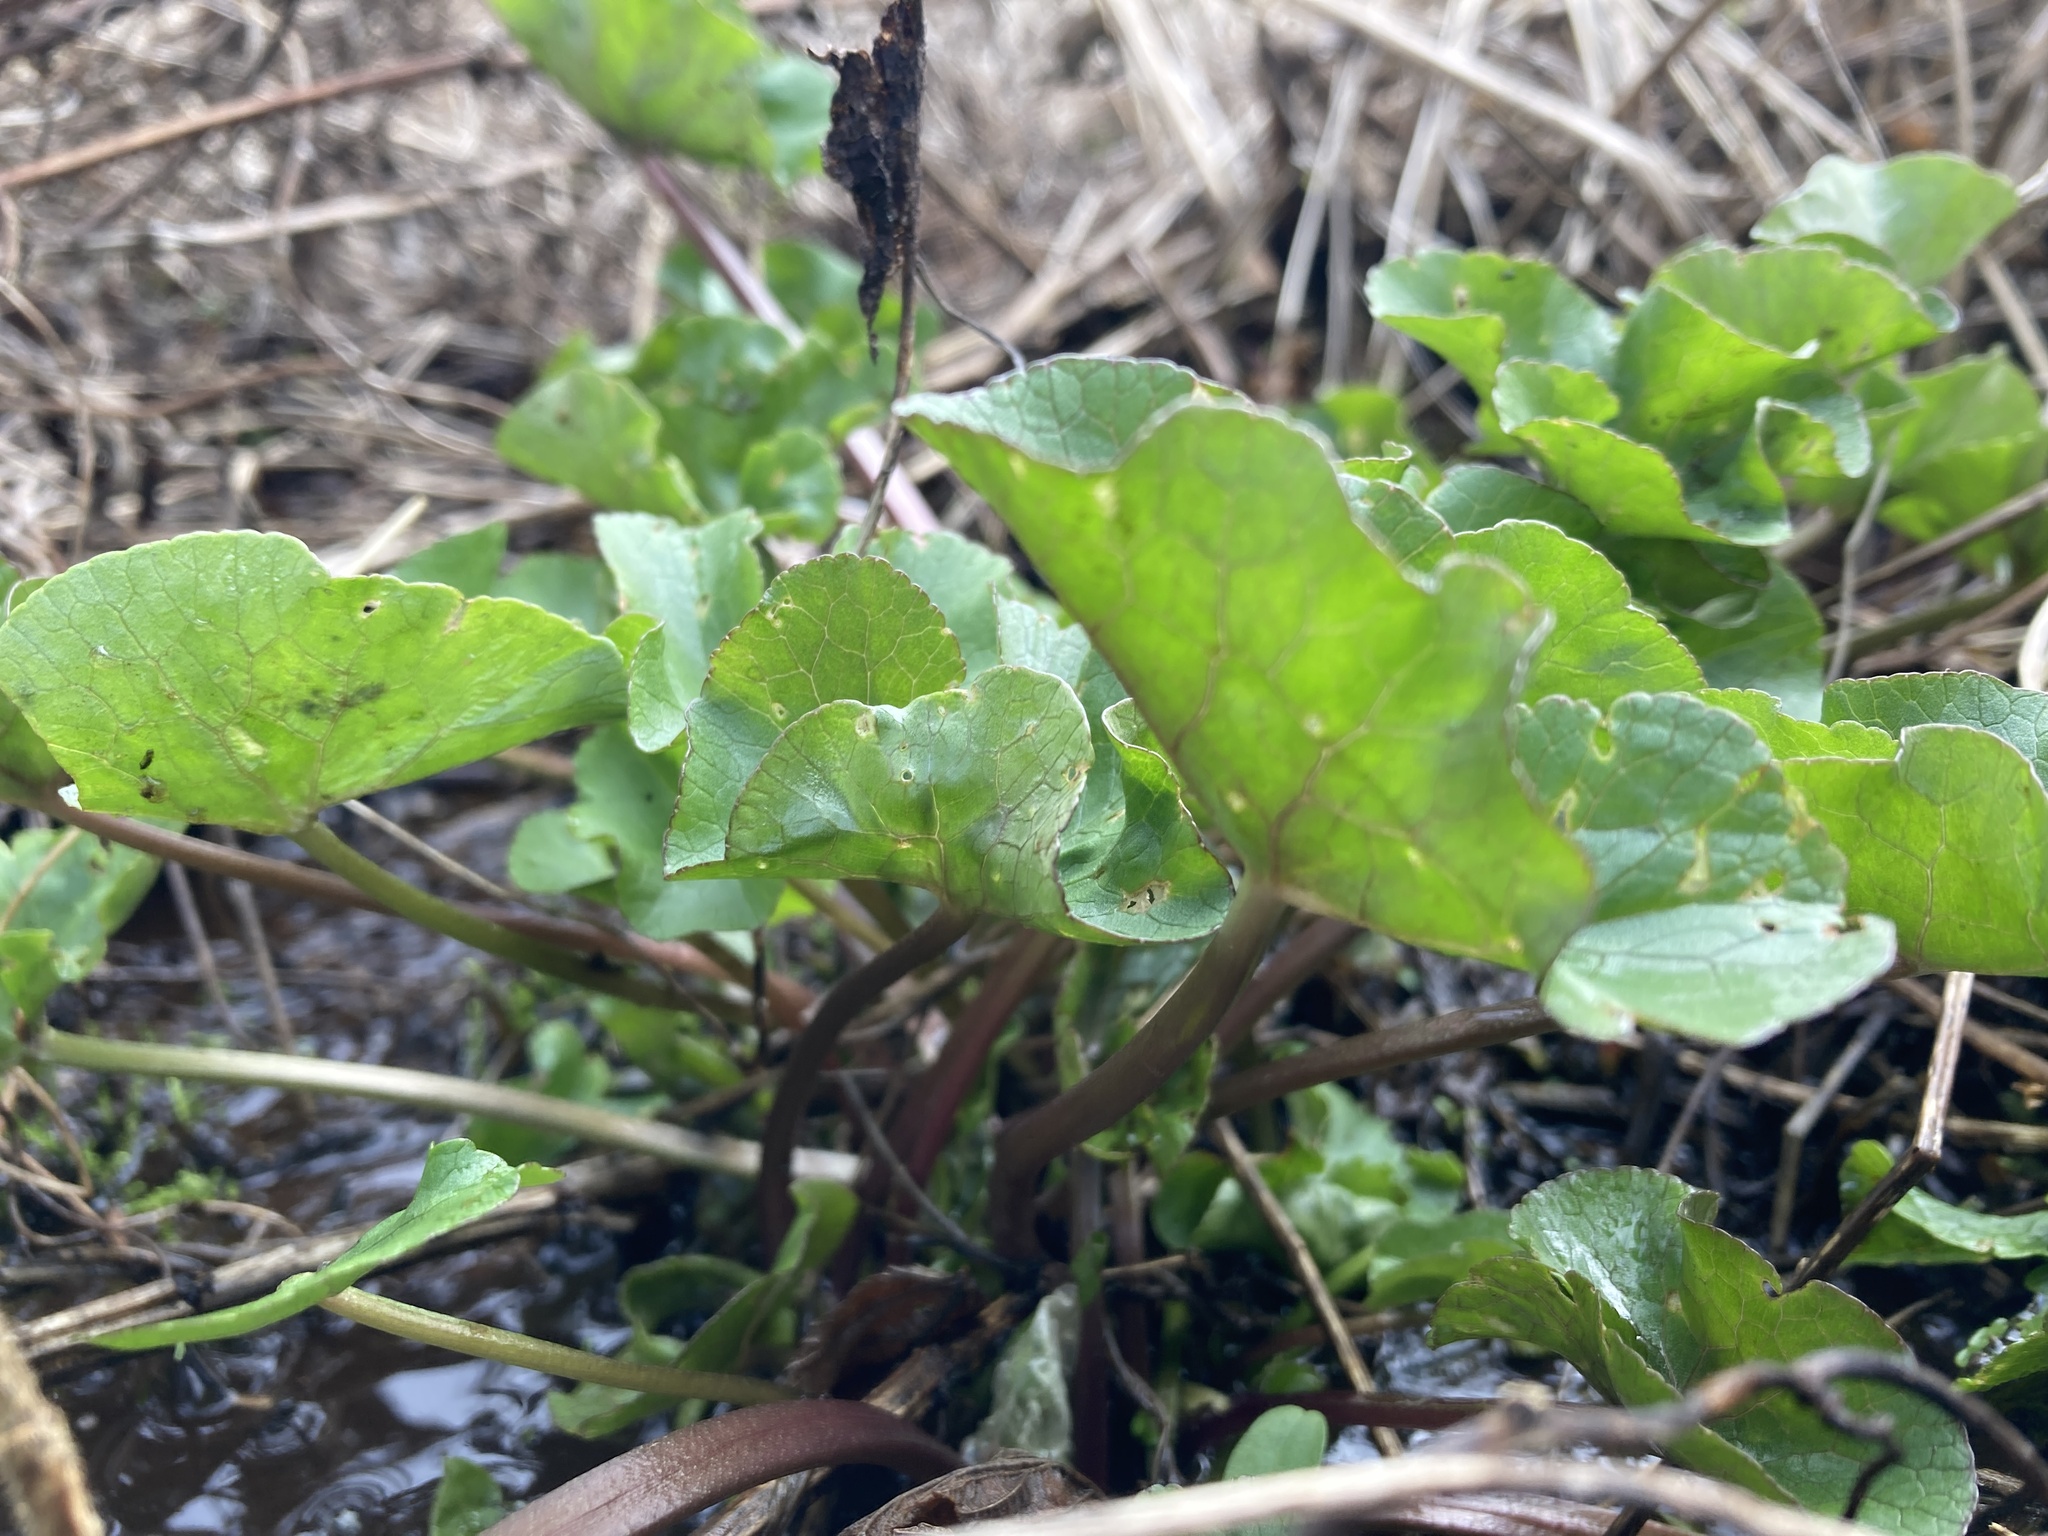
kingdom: Plantae
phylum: Tracheophyta
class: Magnoliopsida
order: Ranunculales
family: Ranunculaceae
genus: Caltha
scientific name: Caltha palustris
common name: Marsh marigold
